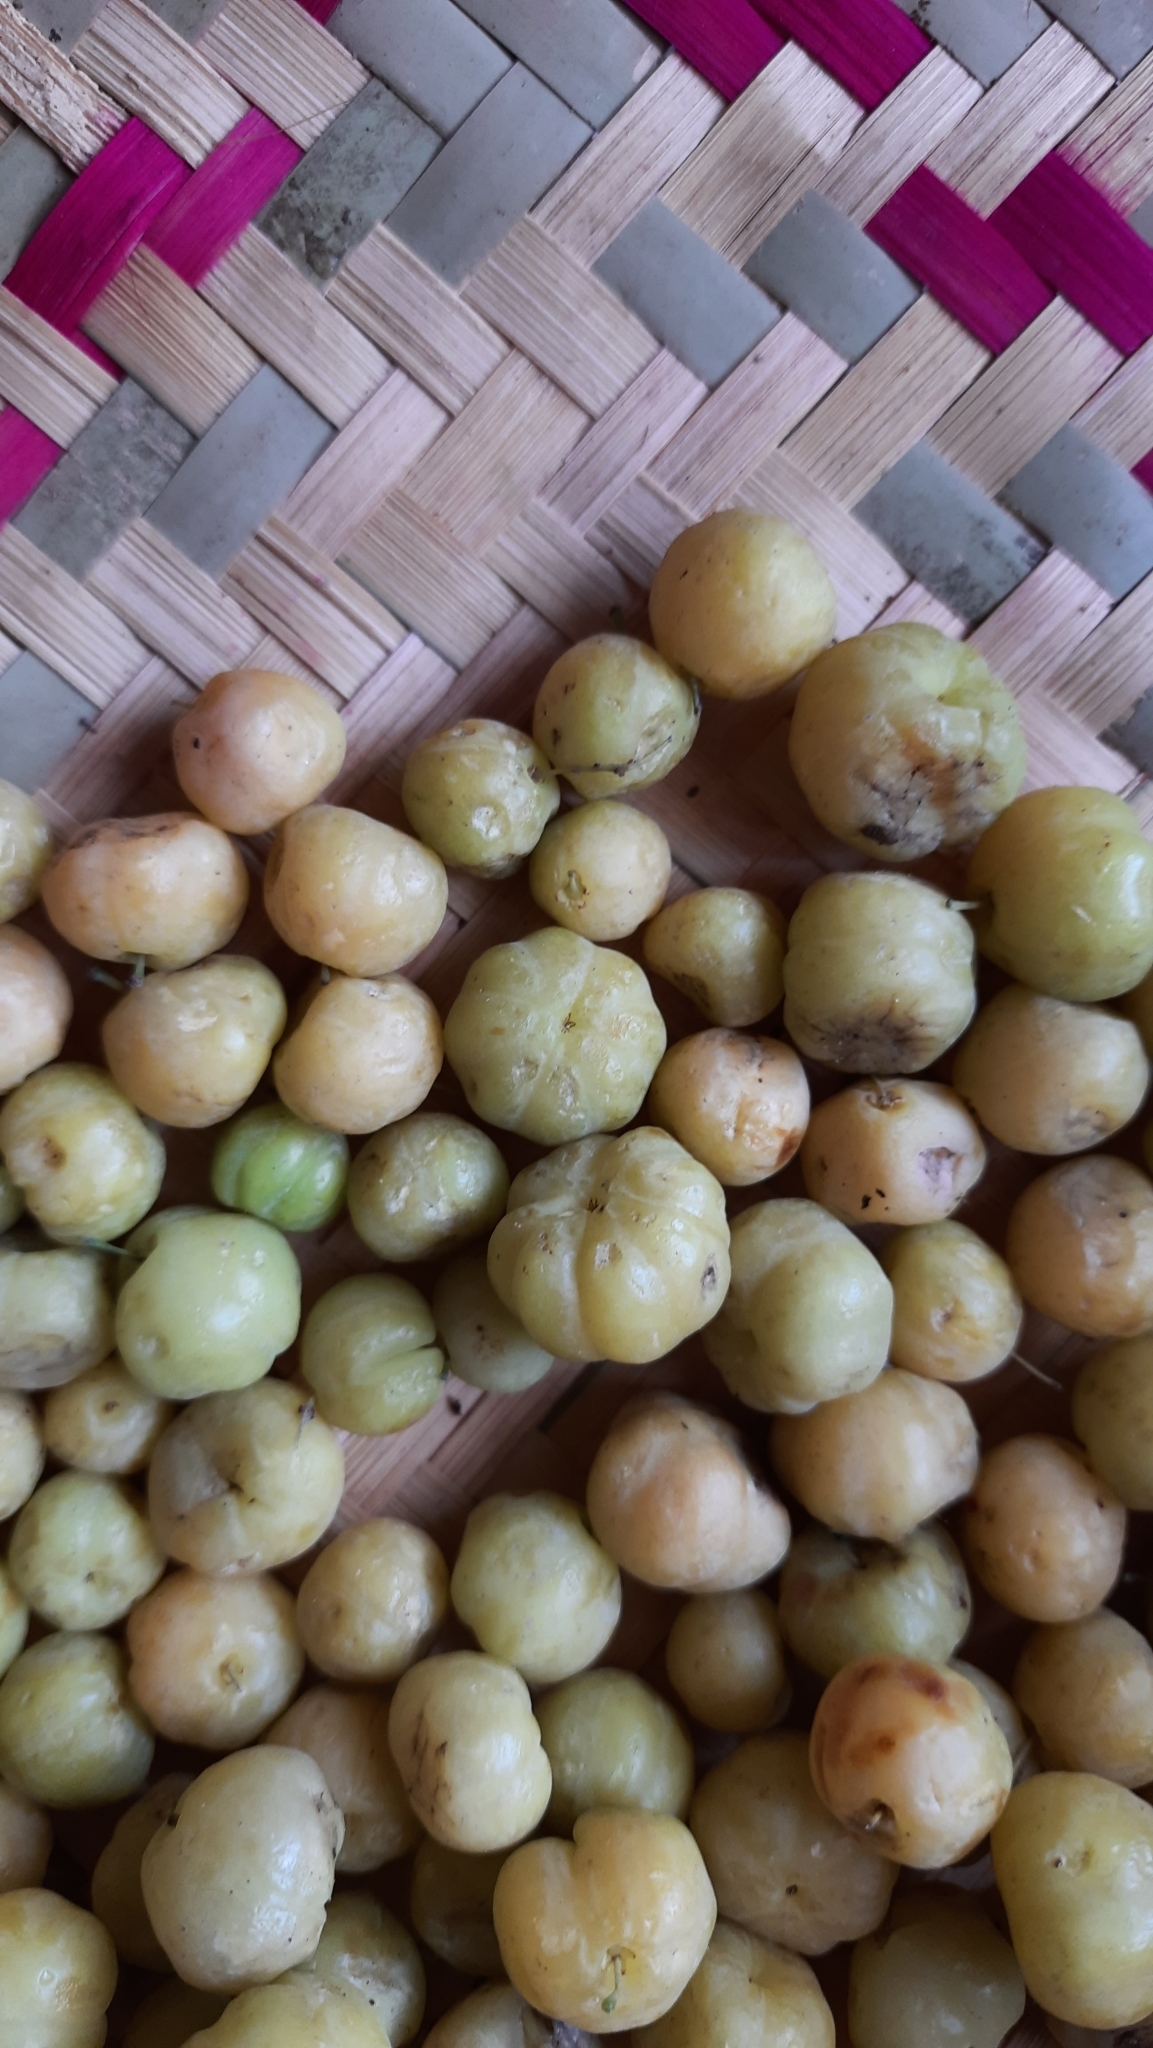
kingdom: Plantae
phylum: Tracheophyta
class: Magnoliopsida
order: Malpighiales
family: Phyllanthaceae
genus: Phyllanthus
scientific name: Phyllanthus emblica
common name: Indian gooseberry
